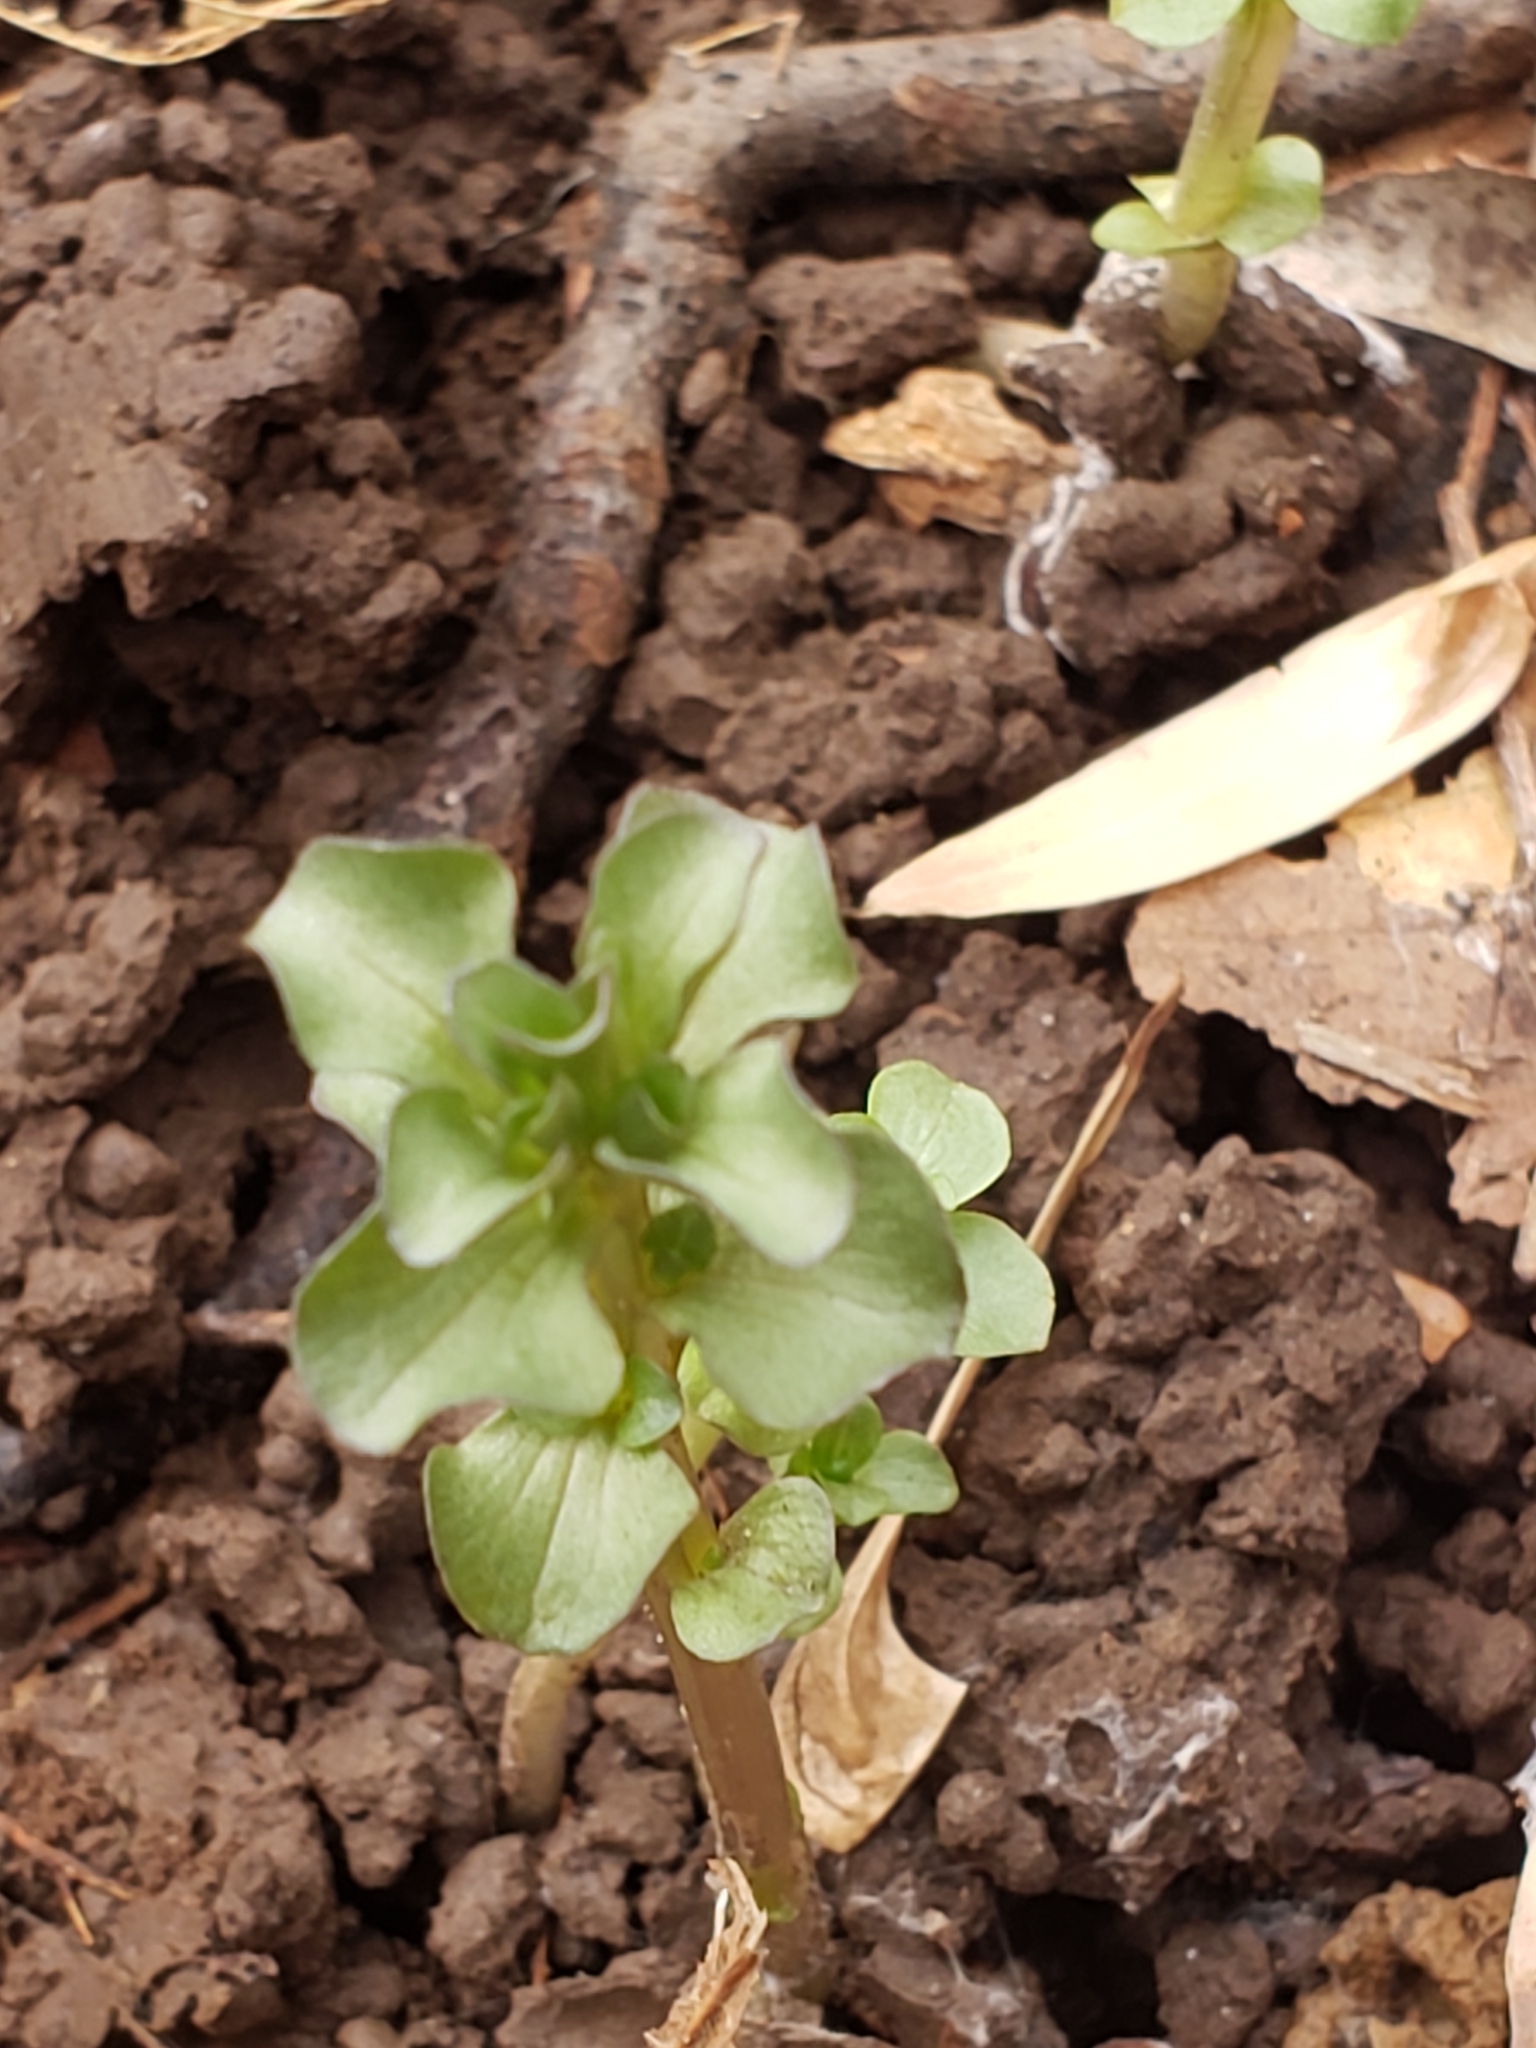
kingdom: Plantae
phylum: Tracheophyta
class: Magnoliopsida
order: Gentianales
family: Gentianaceae
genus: Obolaria
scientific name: Obolaria virginica
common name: Pennywort
